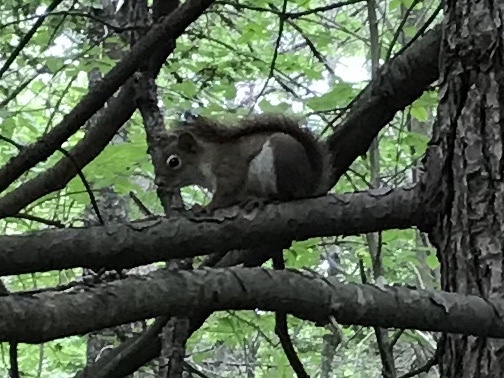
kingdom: Animalia
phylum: Chordata
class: Mammalia
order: Rodentia
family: Sciuridae
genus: Tamiasciurus
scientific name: Tamiasciurus hudsonicus
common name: Red squirrel
